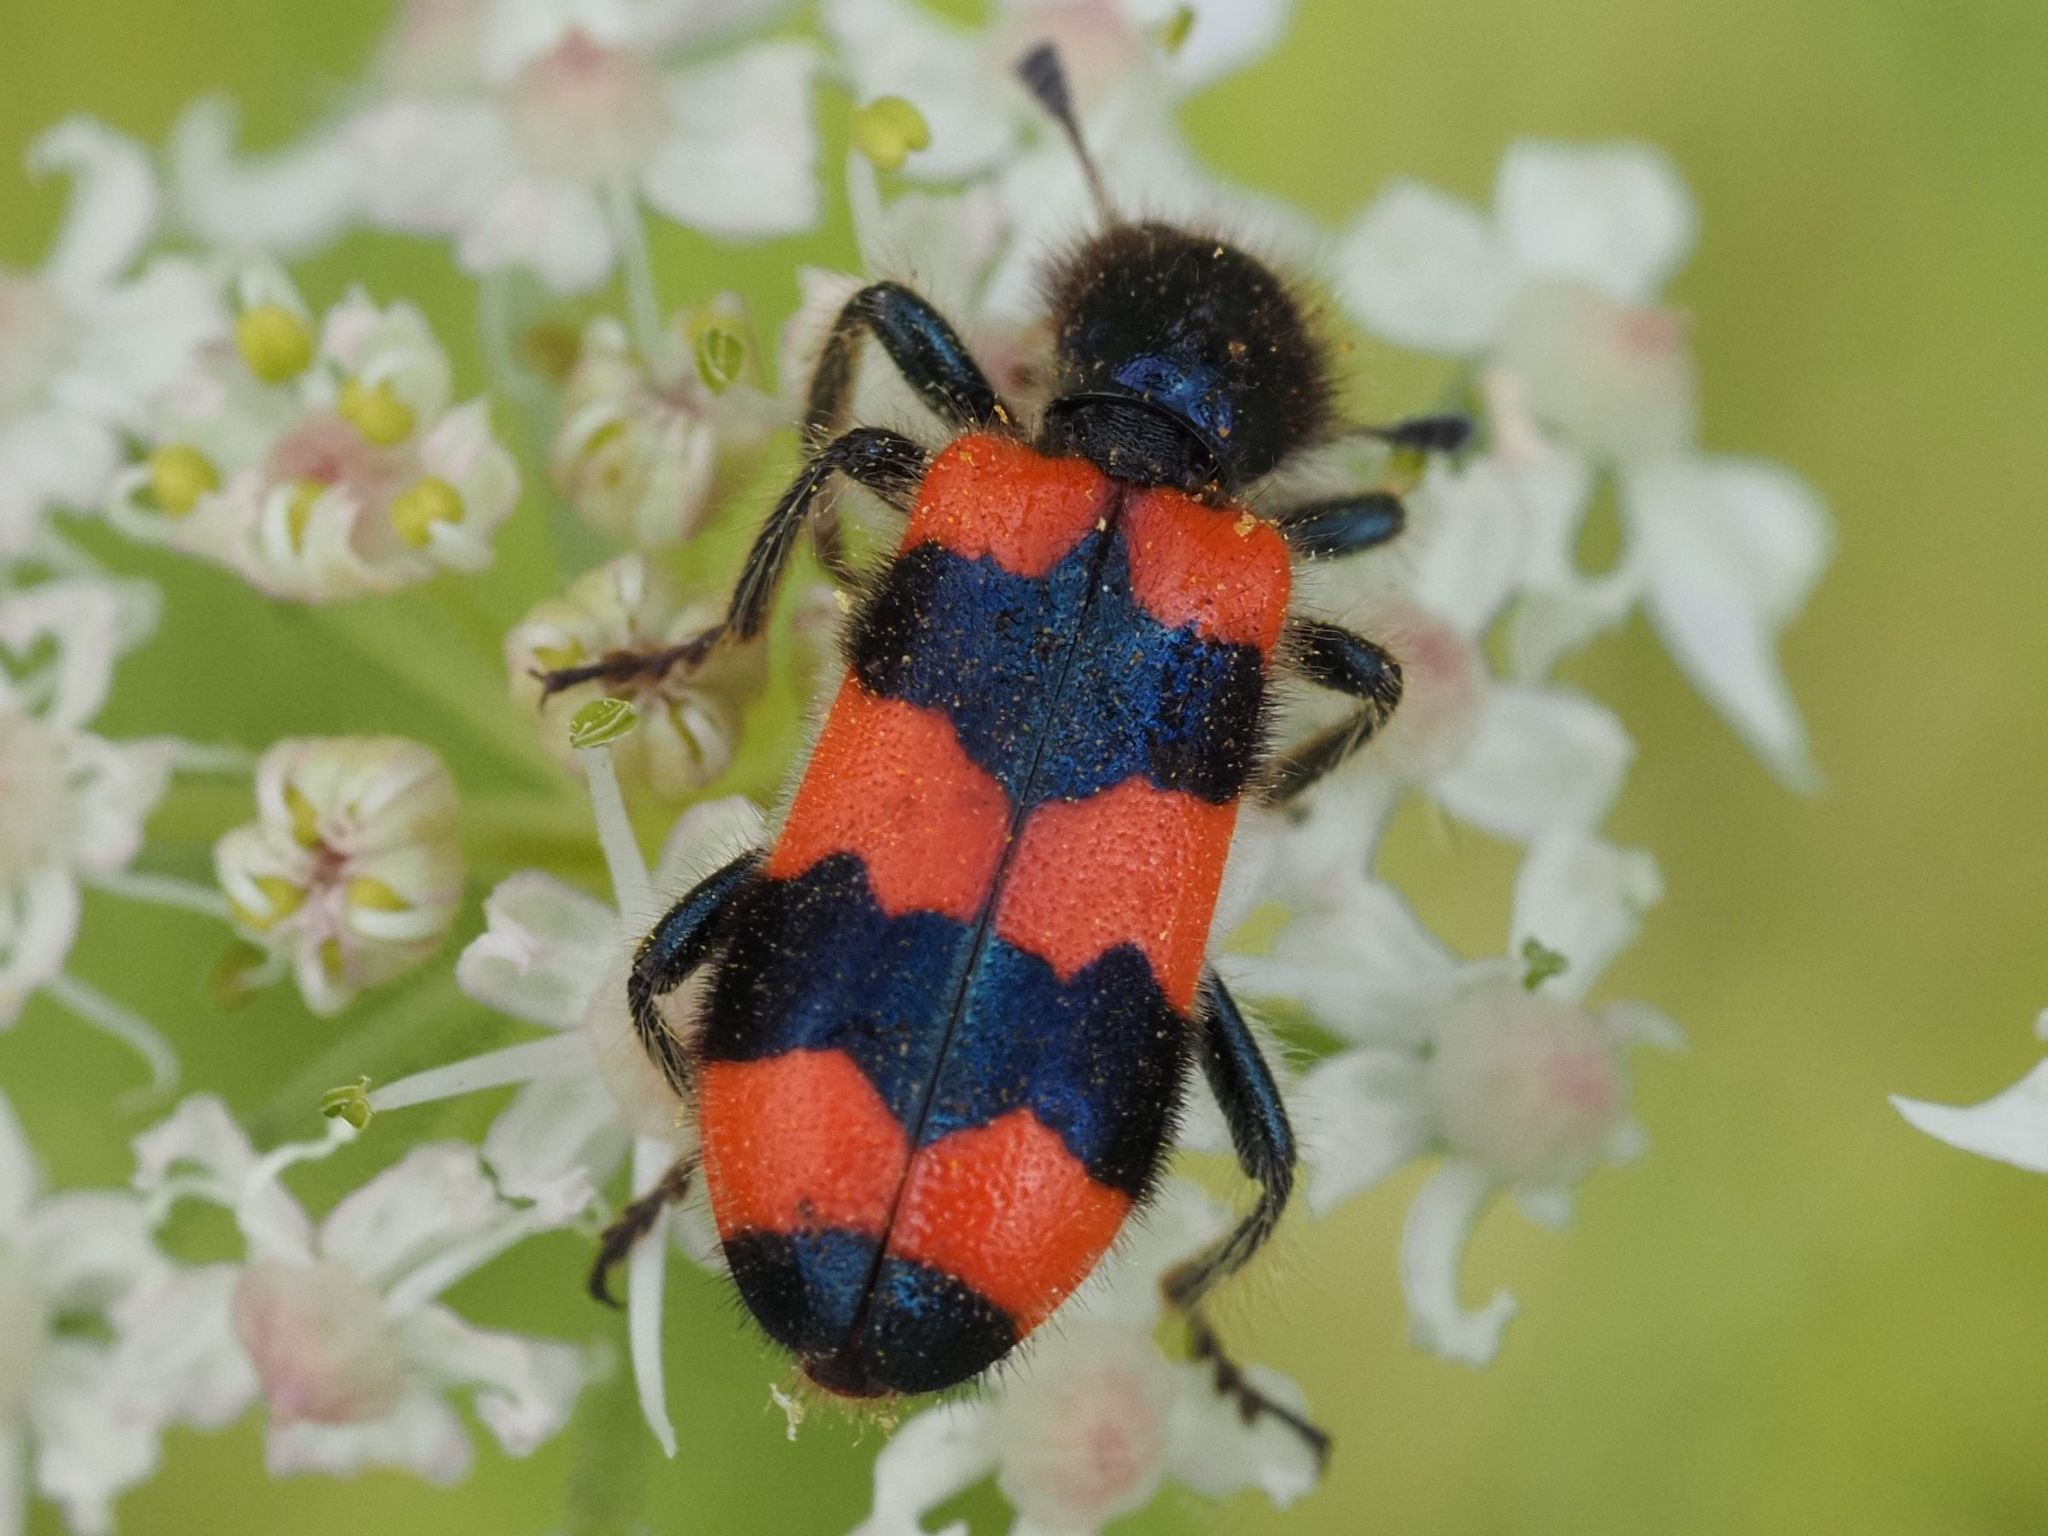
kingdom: Animalia
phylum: Arthropoda
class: Insecta
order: Coleoptera
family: Cleridae
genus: Trichodes
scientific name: Trichodes apiarius
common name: Bee-eating beetle
